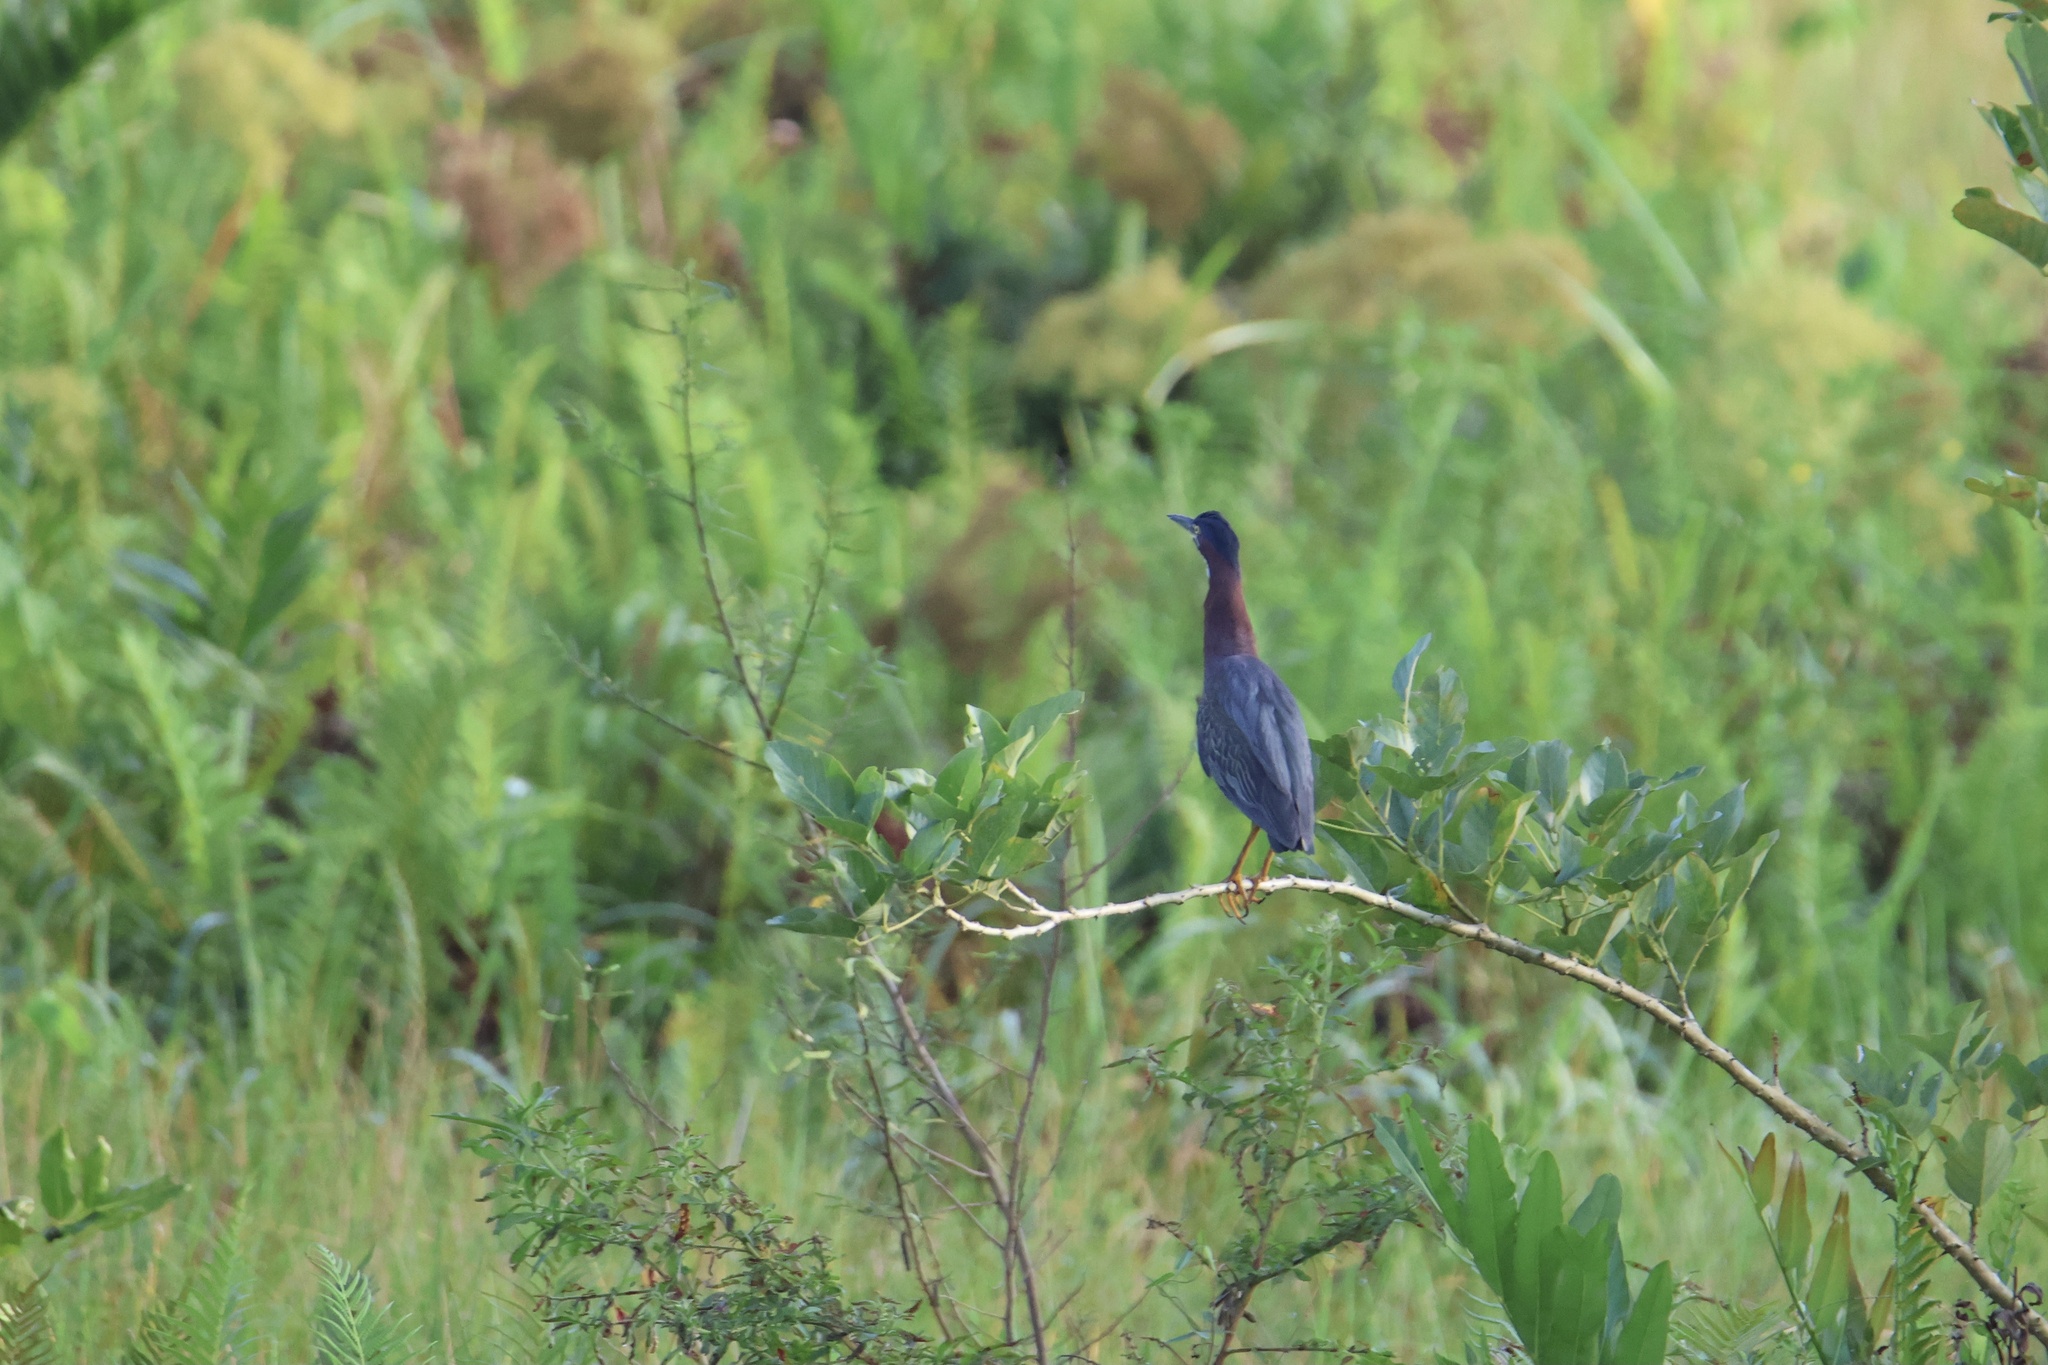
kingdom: Animalia
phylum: Chordata
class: Aves
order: Pelecaniformes
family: Ardeidae
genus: Butorides
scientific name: Butorides virescens
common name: Green heron
